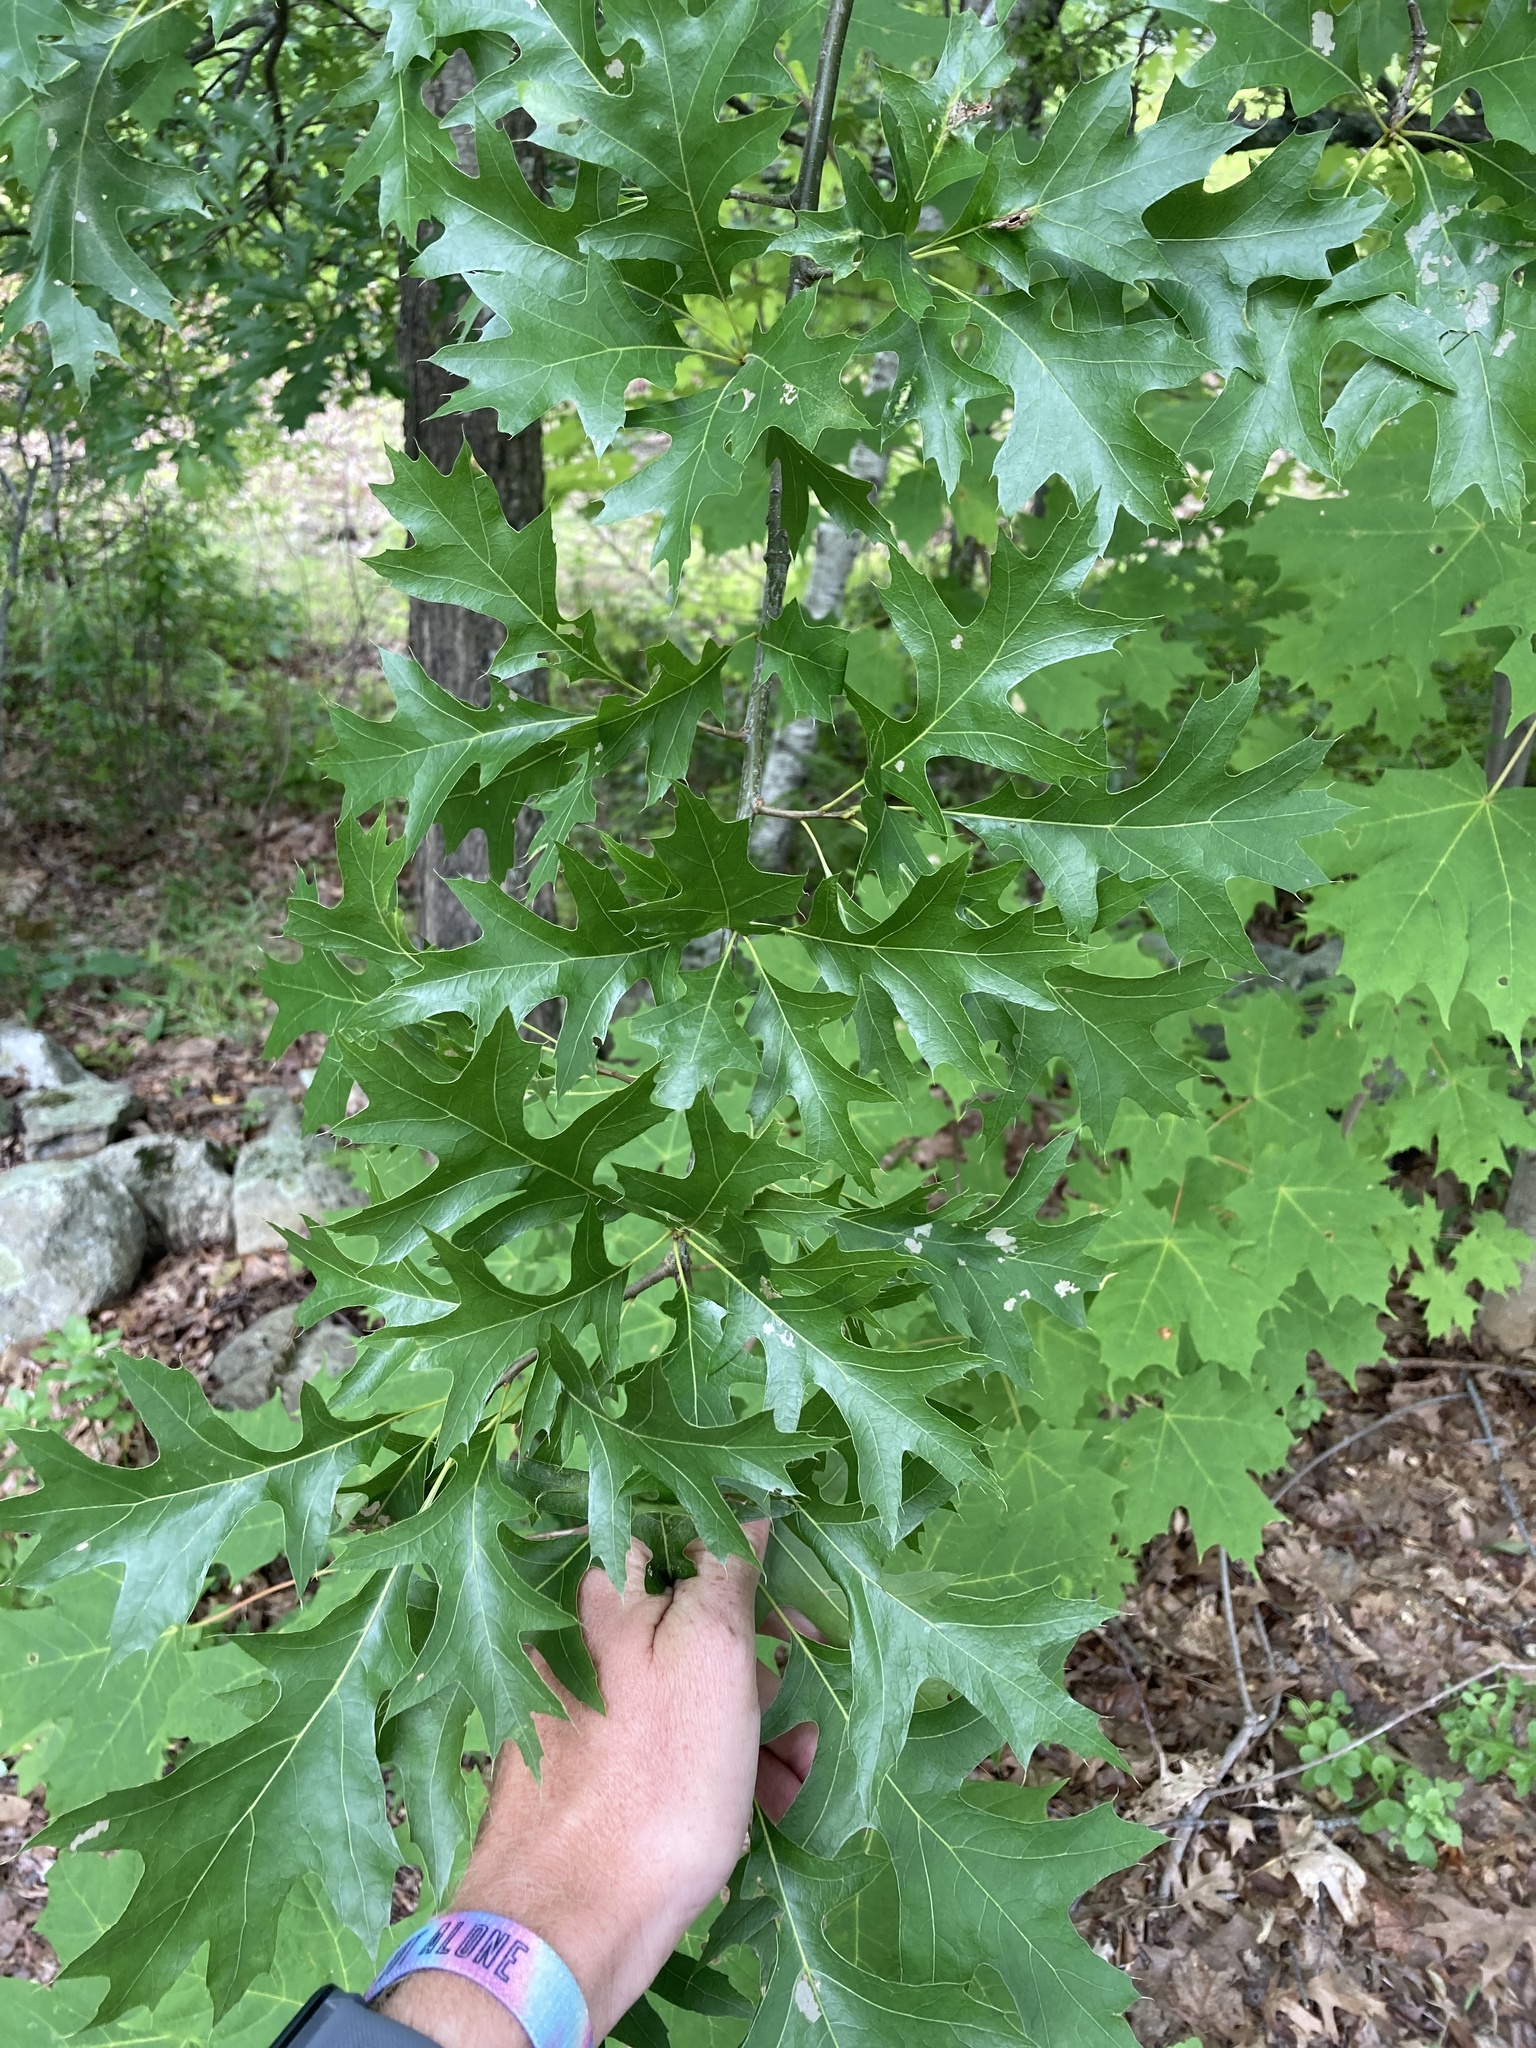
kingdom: Plantae
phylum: Tracheophyta
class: Magnoliopsida
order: Fagales
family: Fagaceae
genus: Quercus
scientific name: Quercus velutina
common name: Black oak
